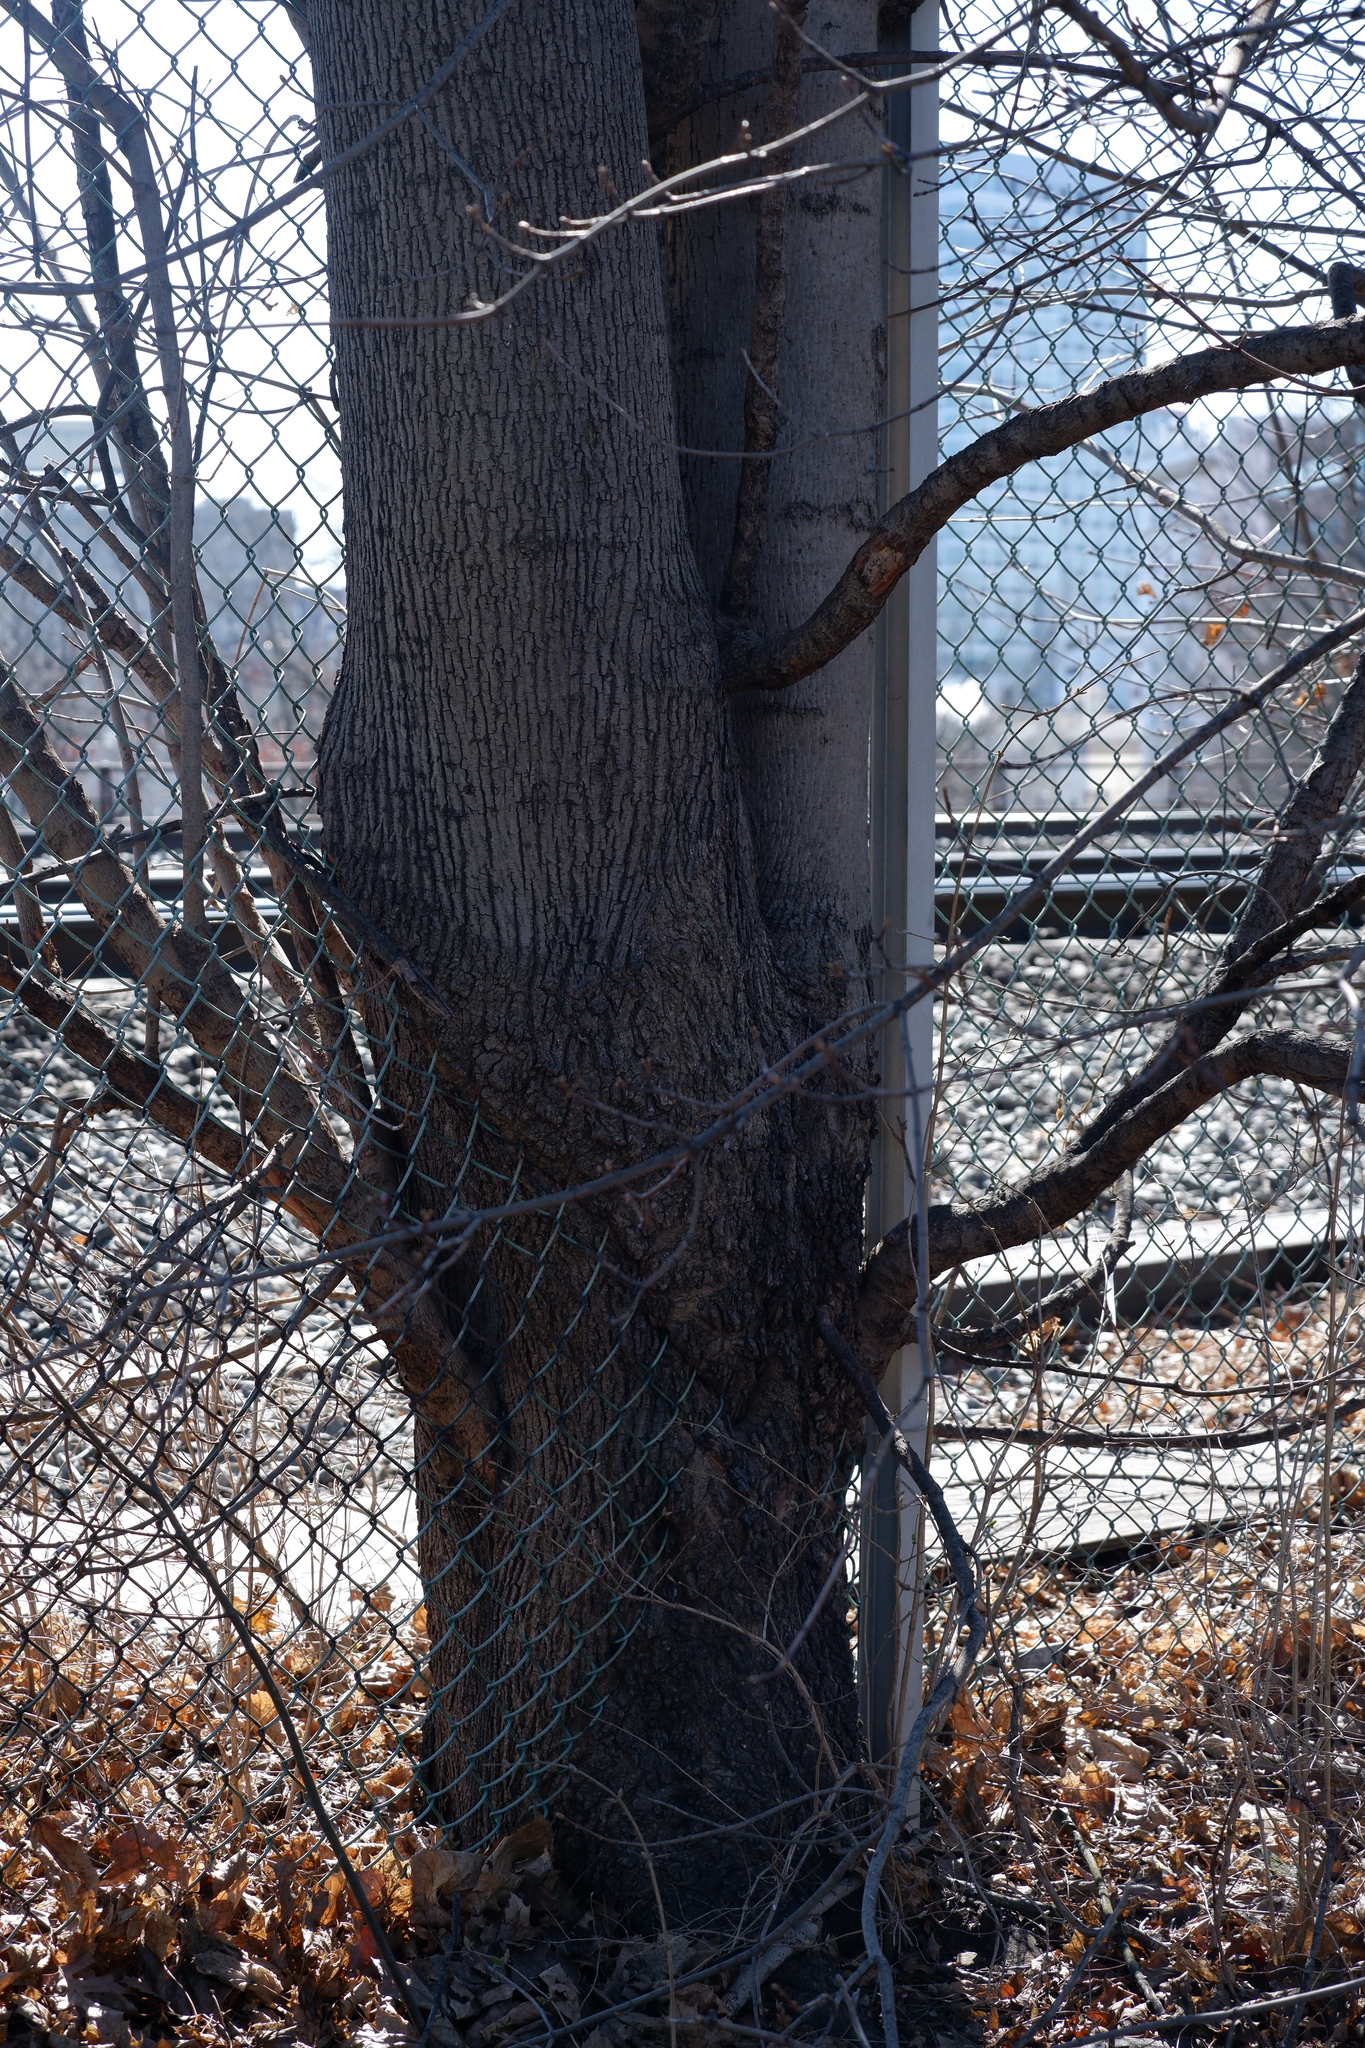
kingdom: Plantae
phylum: Tracheophyta
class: Magnoliopsida
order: Sapindales
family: Sapindaceae
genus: Acer
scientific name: Acer platanoides
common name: Norway maple
